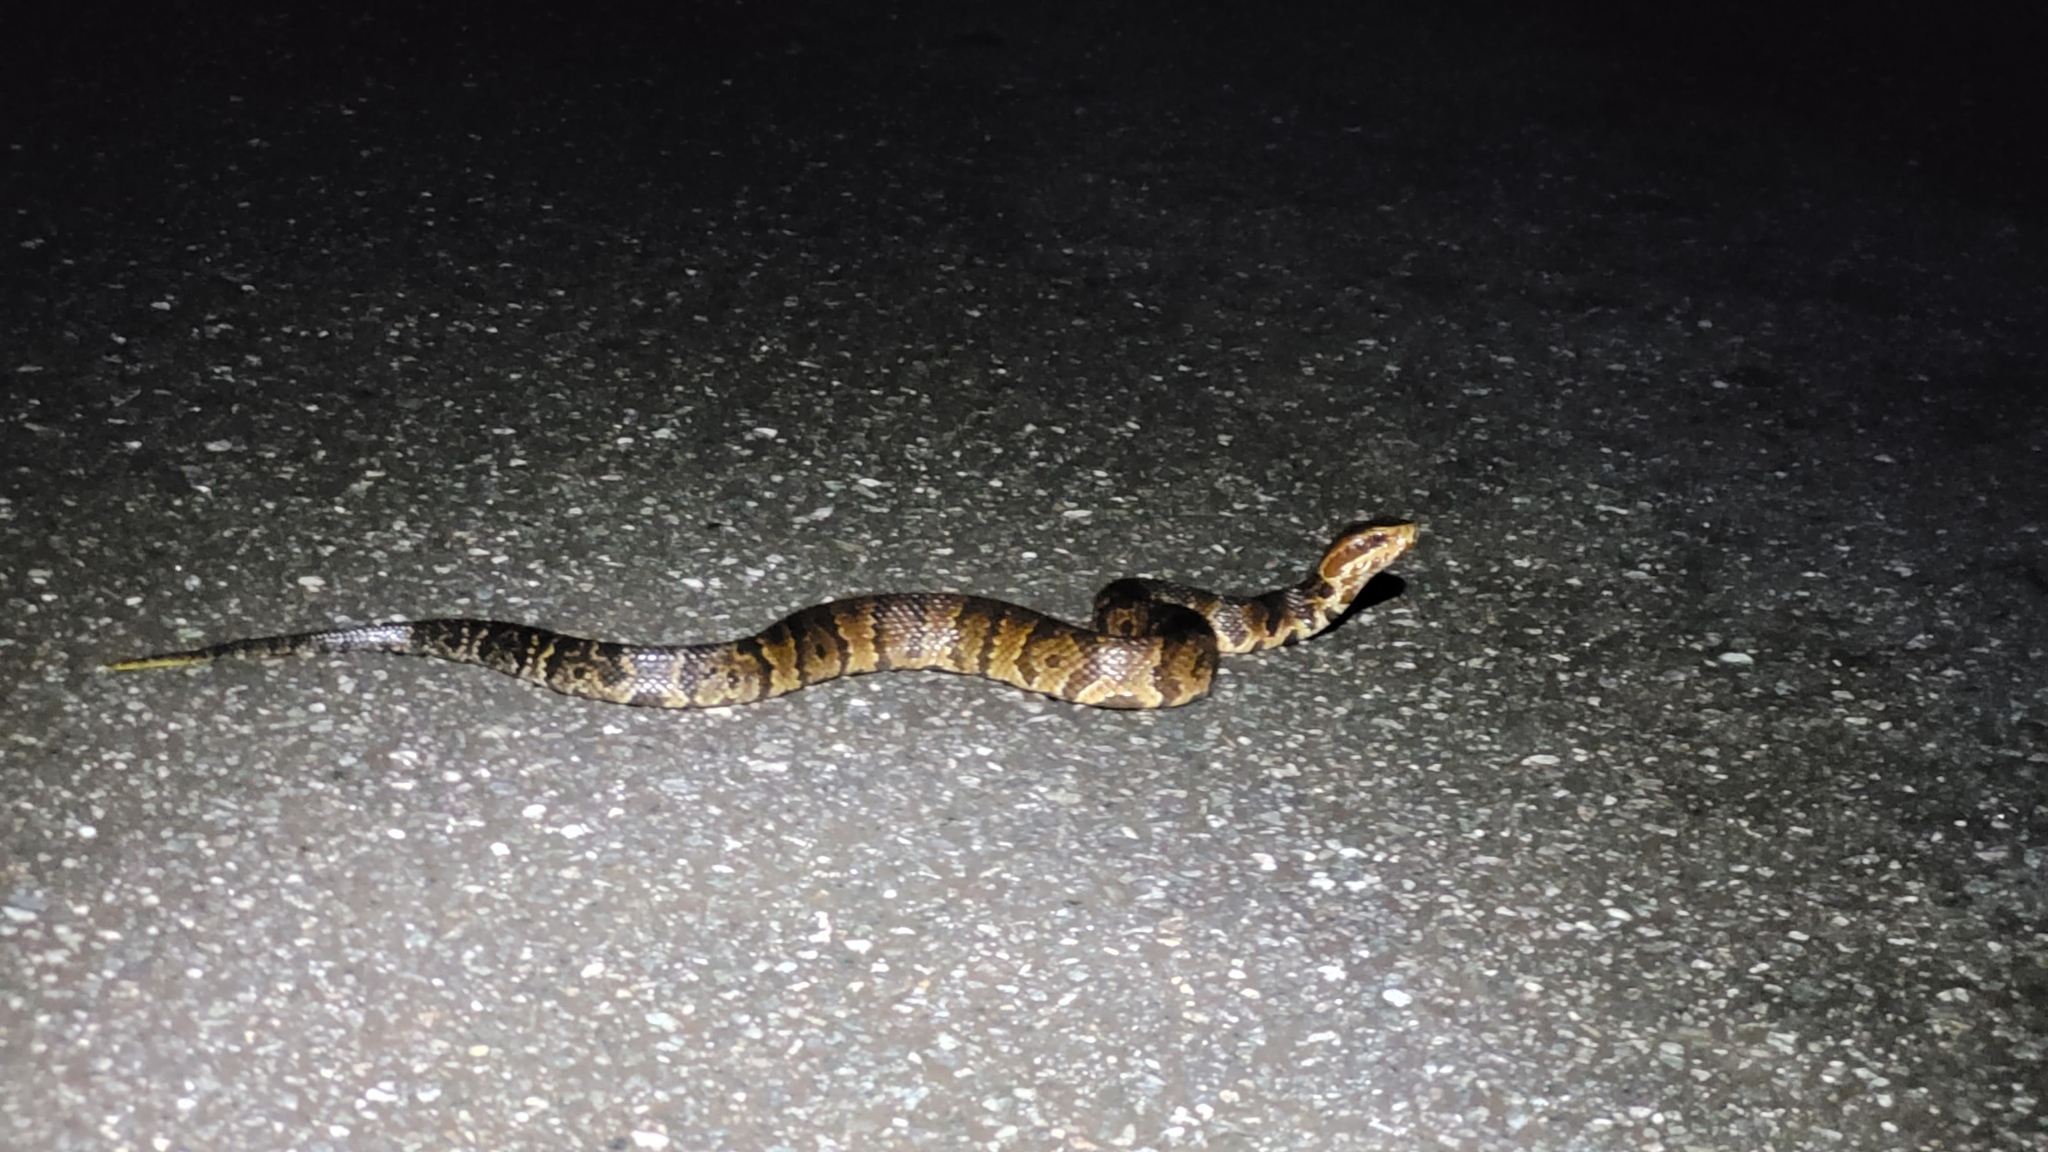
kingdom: Animalia
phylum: Chordata
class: Squamata
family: Viperidae
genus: Agkistrodon
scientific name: Agkistrodon conanti
